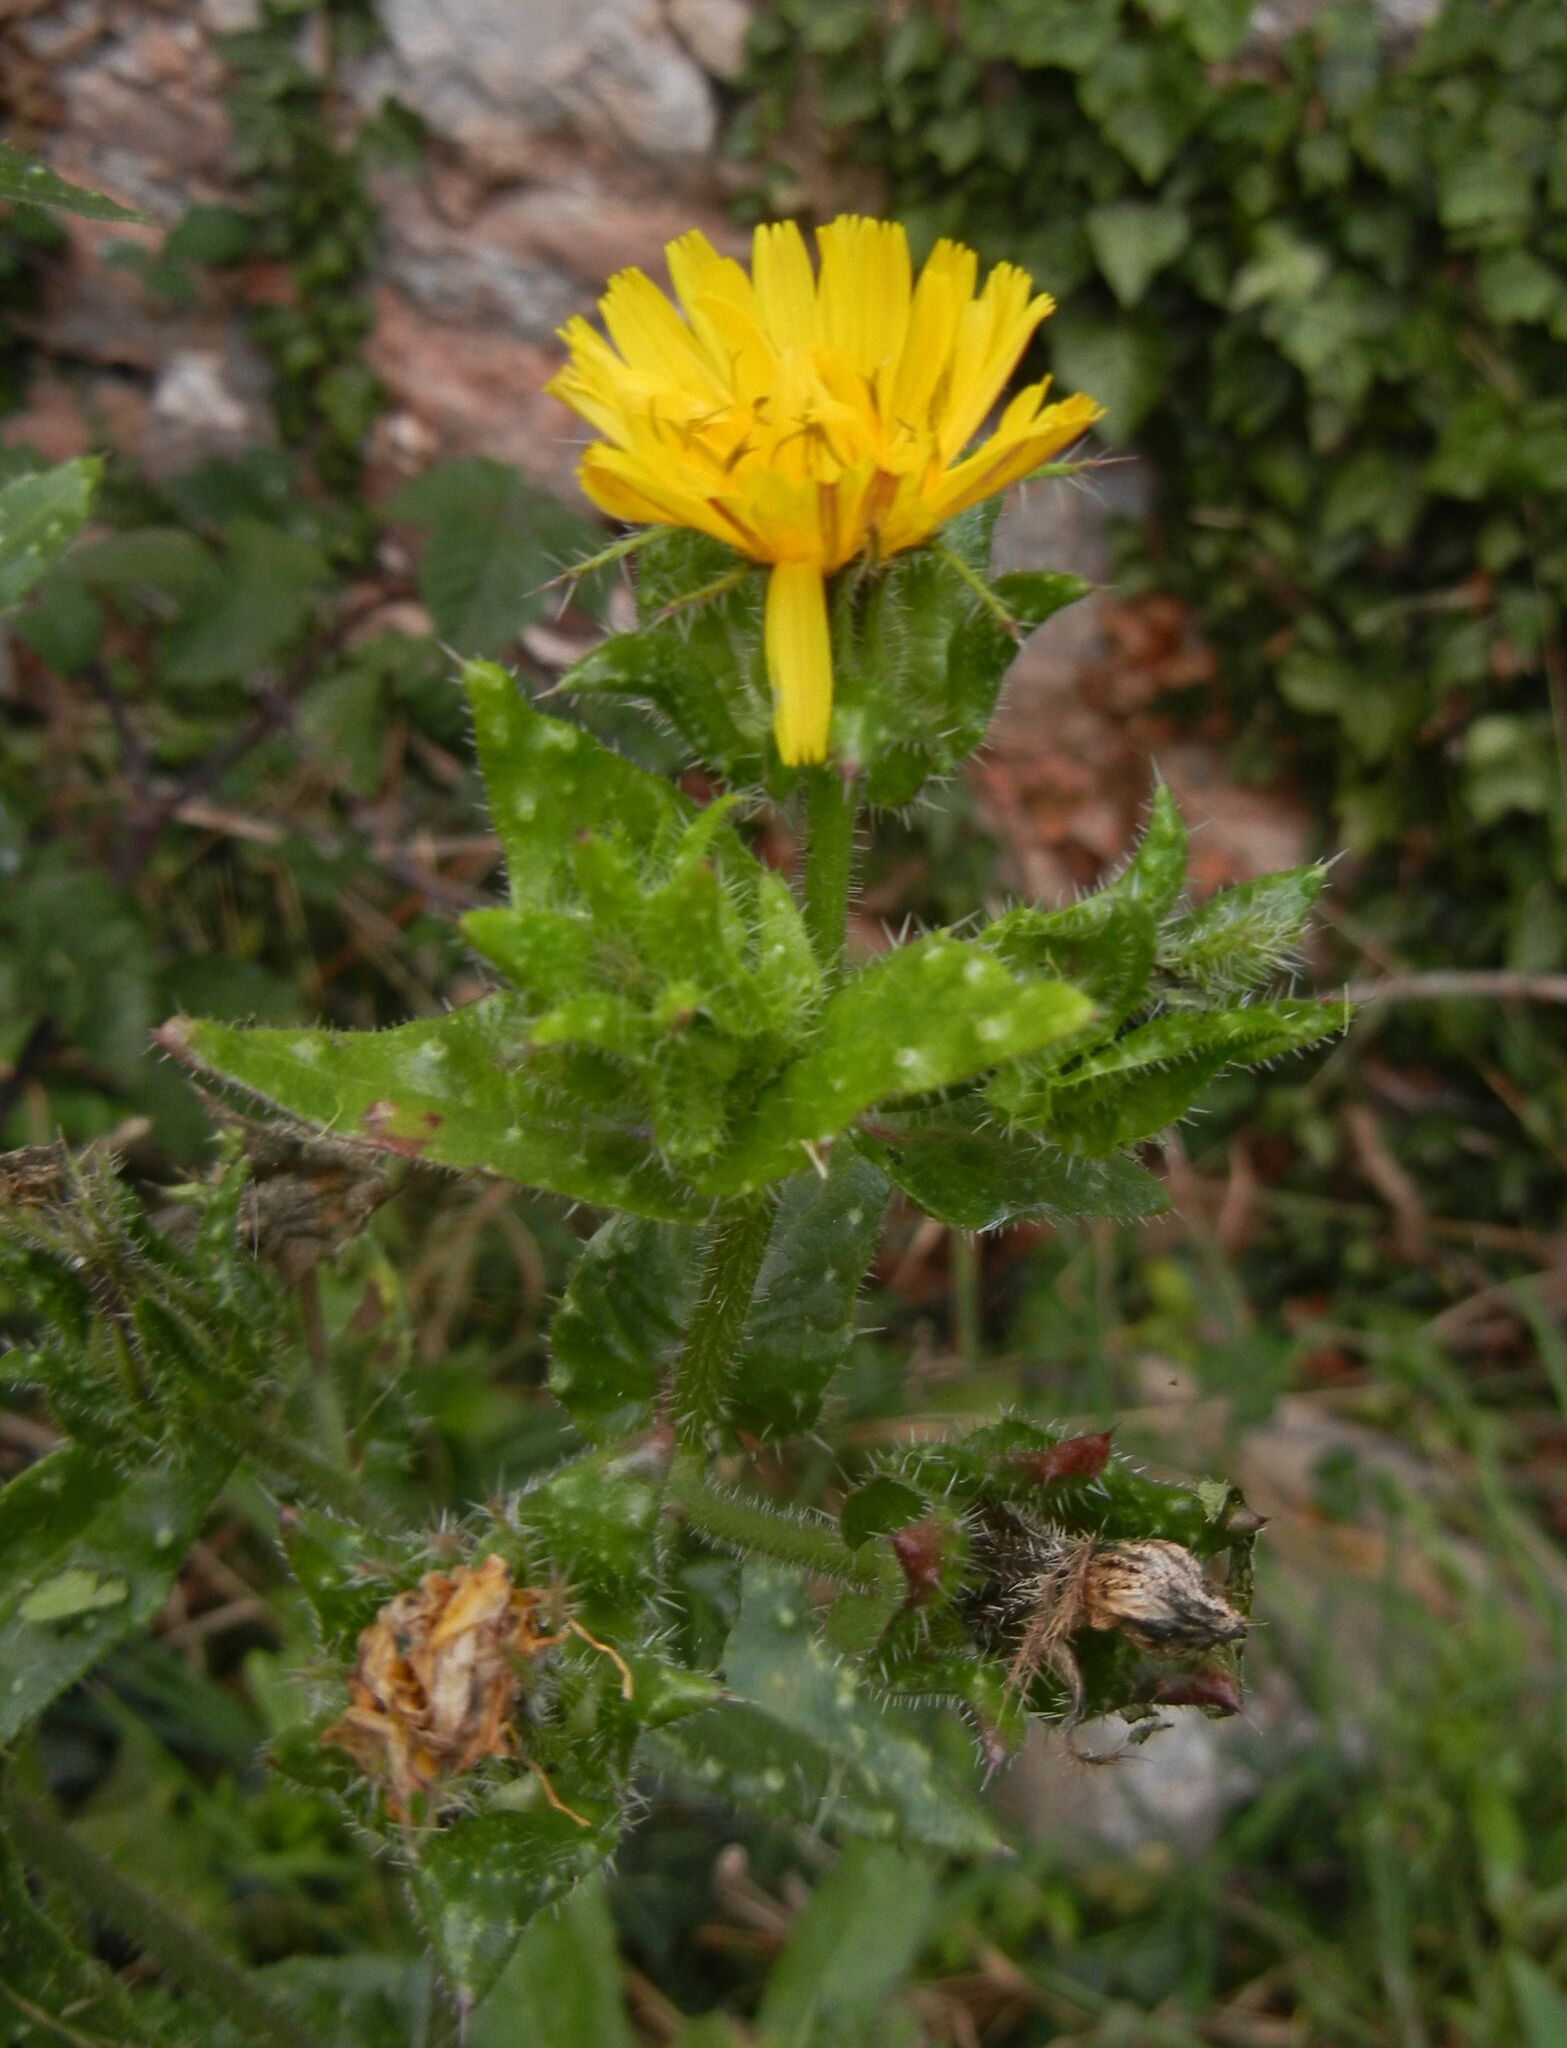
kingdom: Plantae
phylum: Tracheophyta
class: Magnoliopsida
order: Asterales
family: Asteraceae
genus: Helminthotheca
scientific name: Helminthotheca echioides
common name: Ox-tongue
